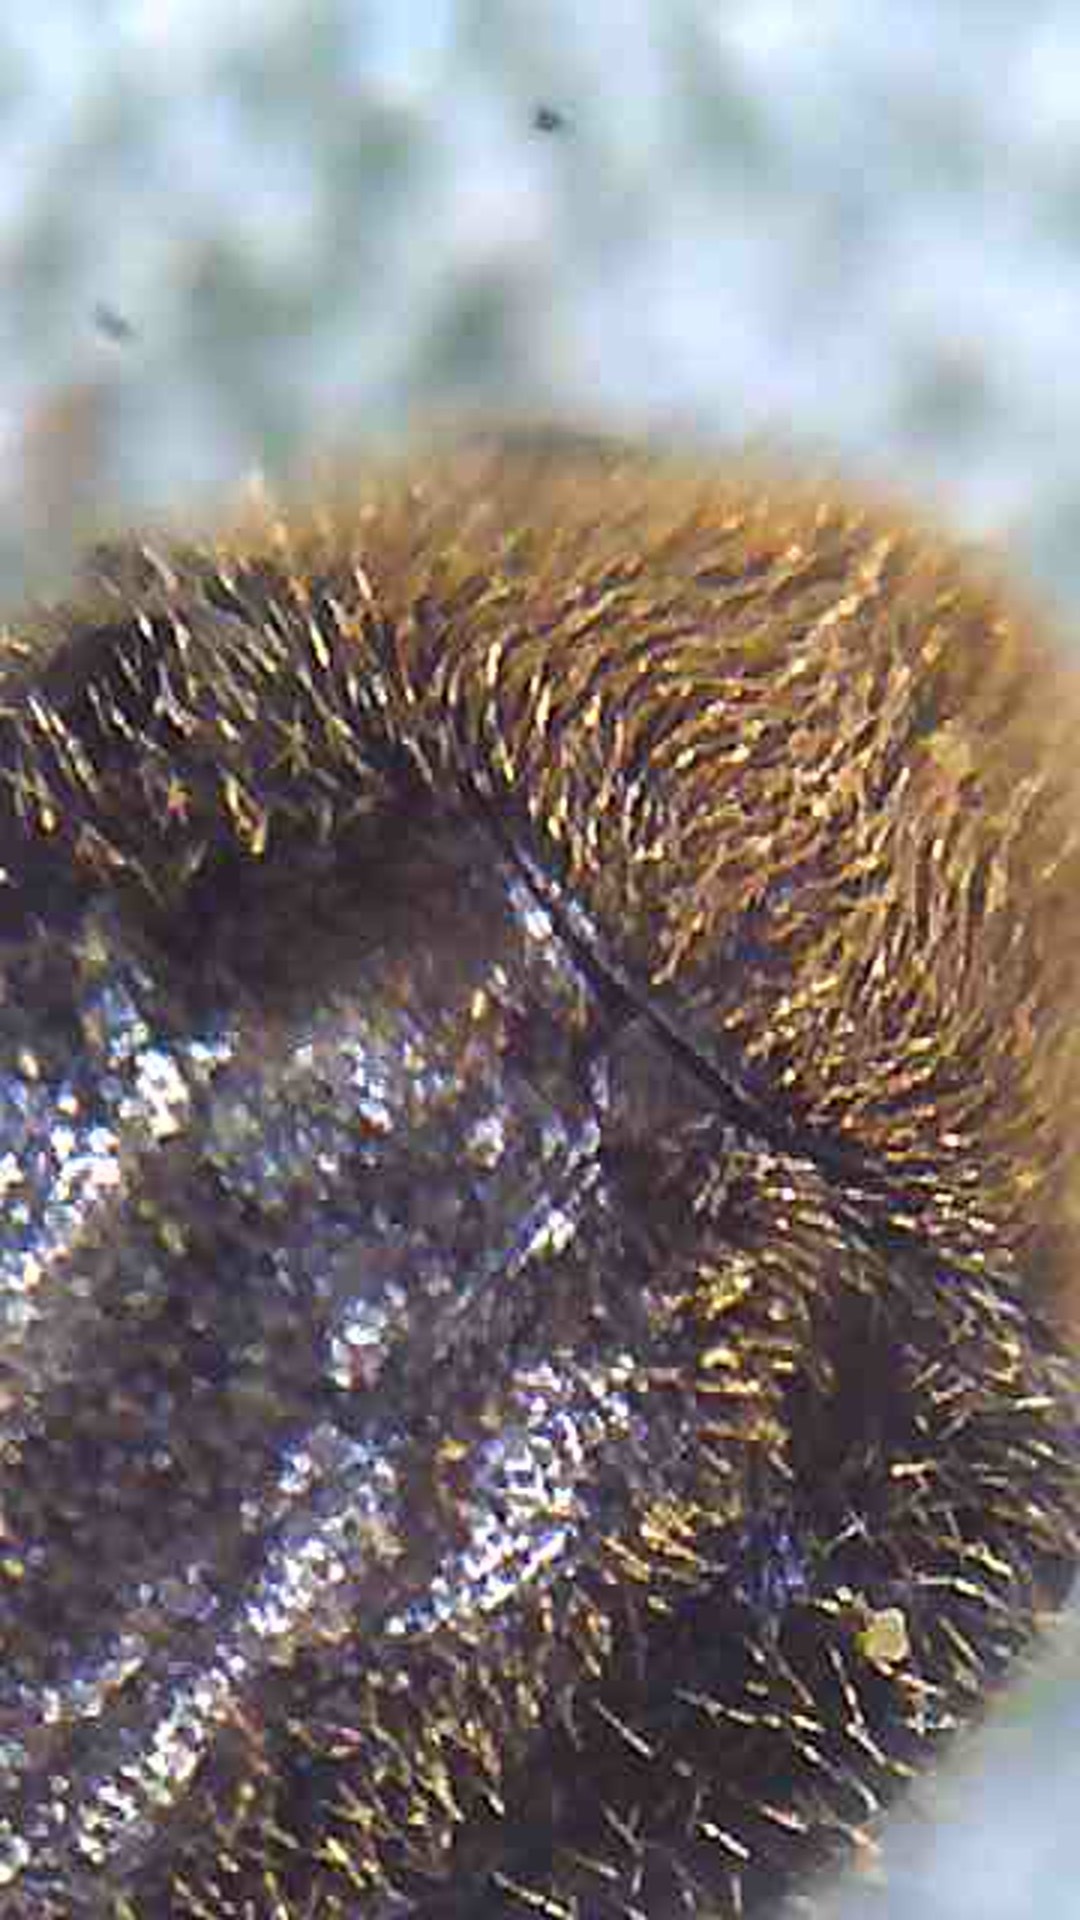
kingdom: Animalia
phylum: Arthropoda
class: Insecta
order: Coleoptera
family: Anobiidae
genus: Caenocara
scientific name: Caenocara
